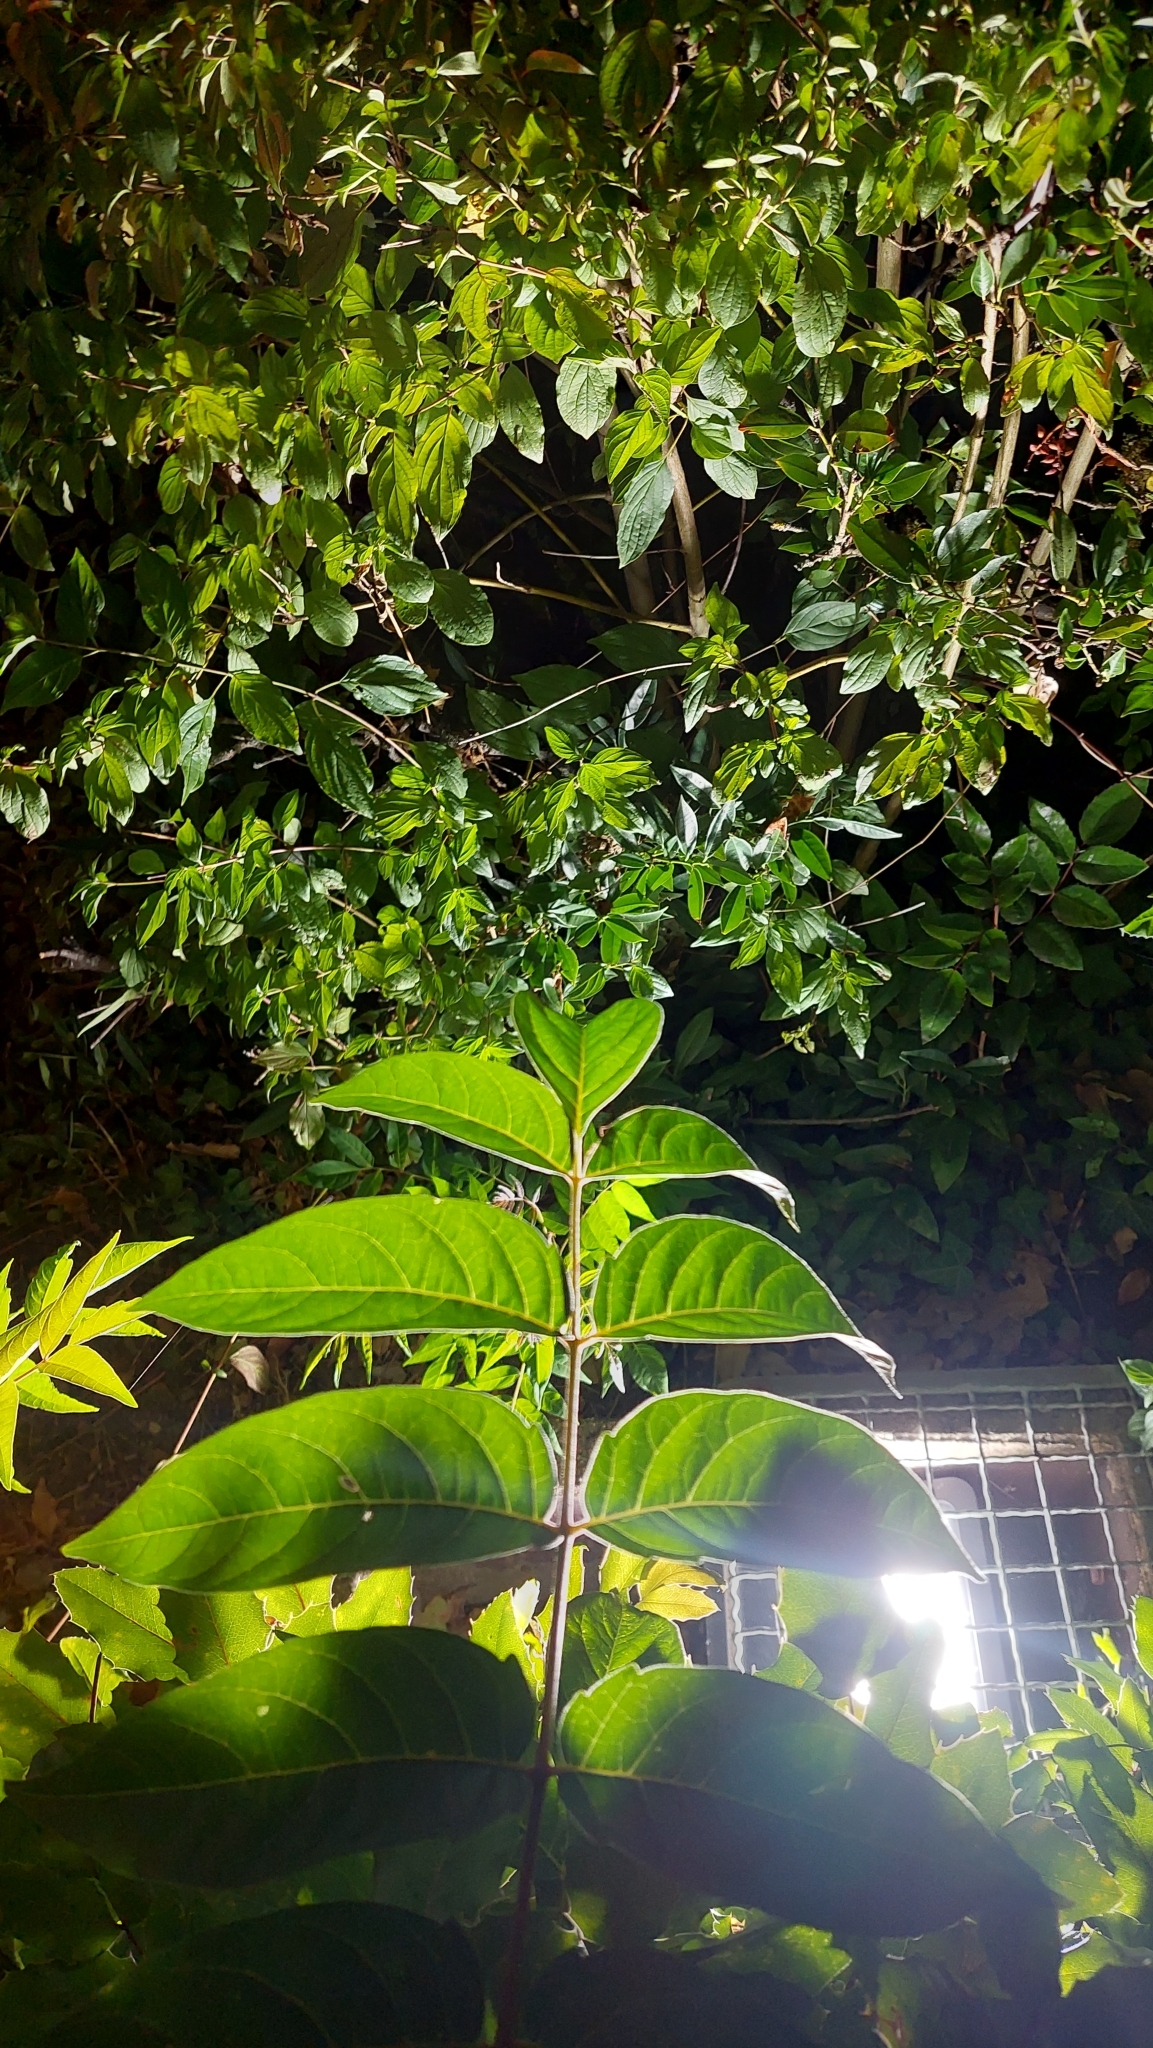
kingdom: Plantae
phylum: Tracheophyta
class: Magnoliopsida
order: Sapindales
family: Simaroubaceae
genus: Ailanthus
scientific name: Ailanthus altissima
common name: Tree-of-heaven
